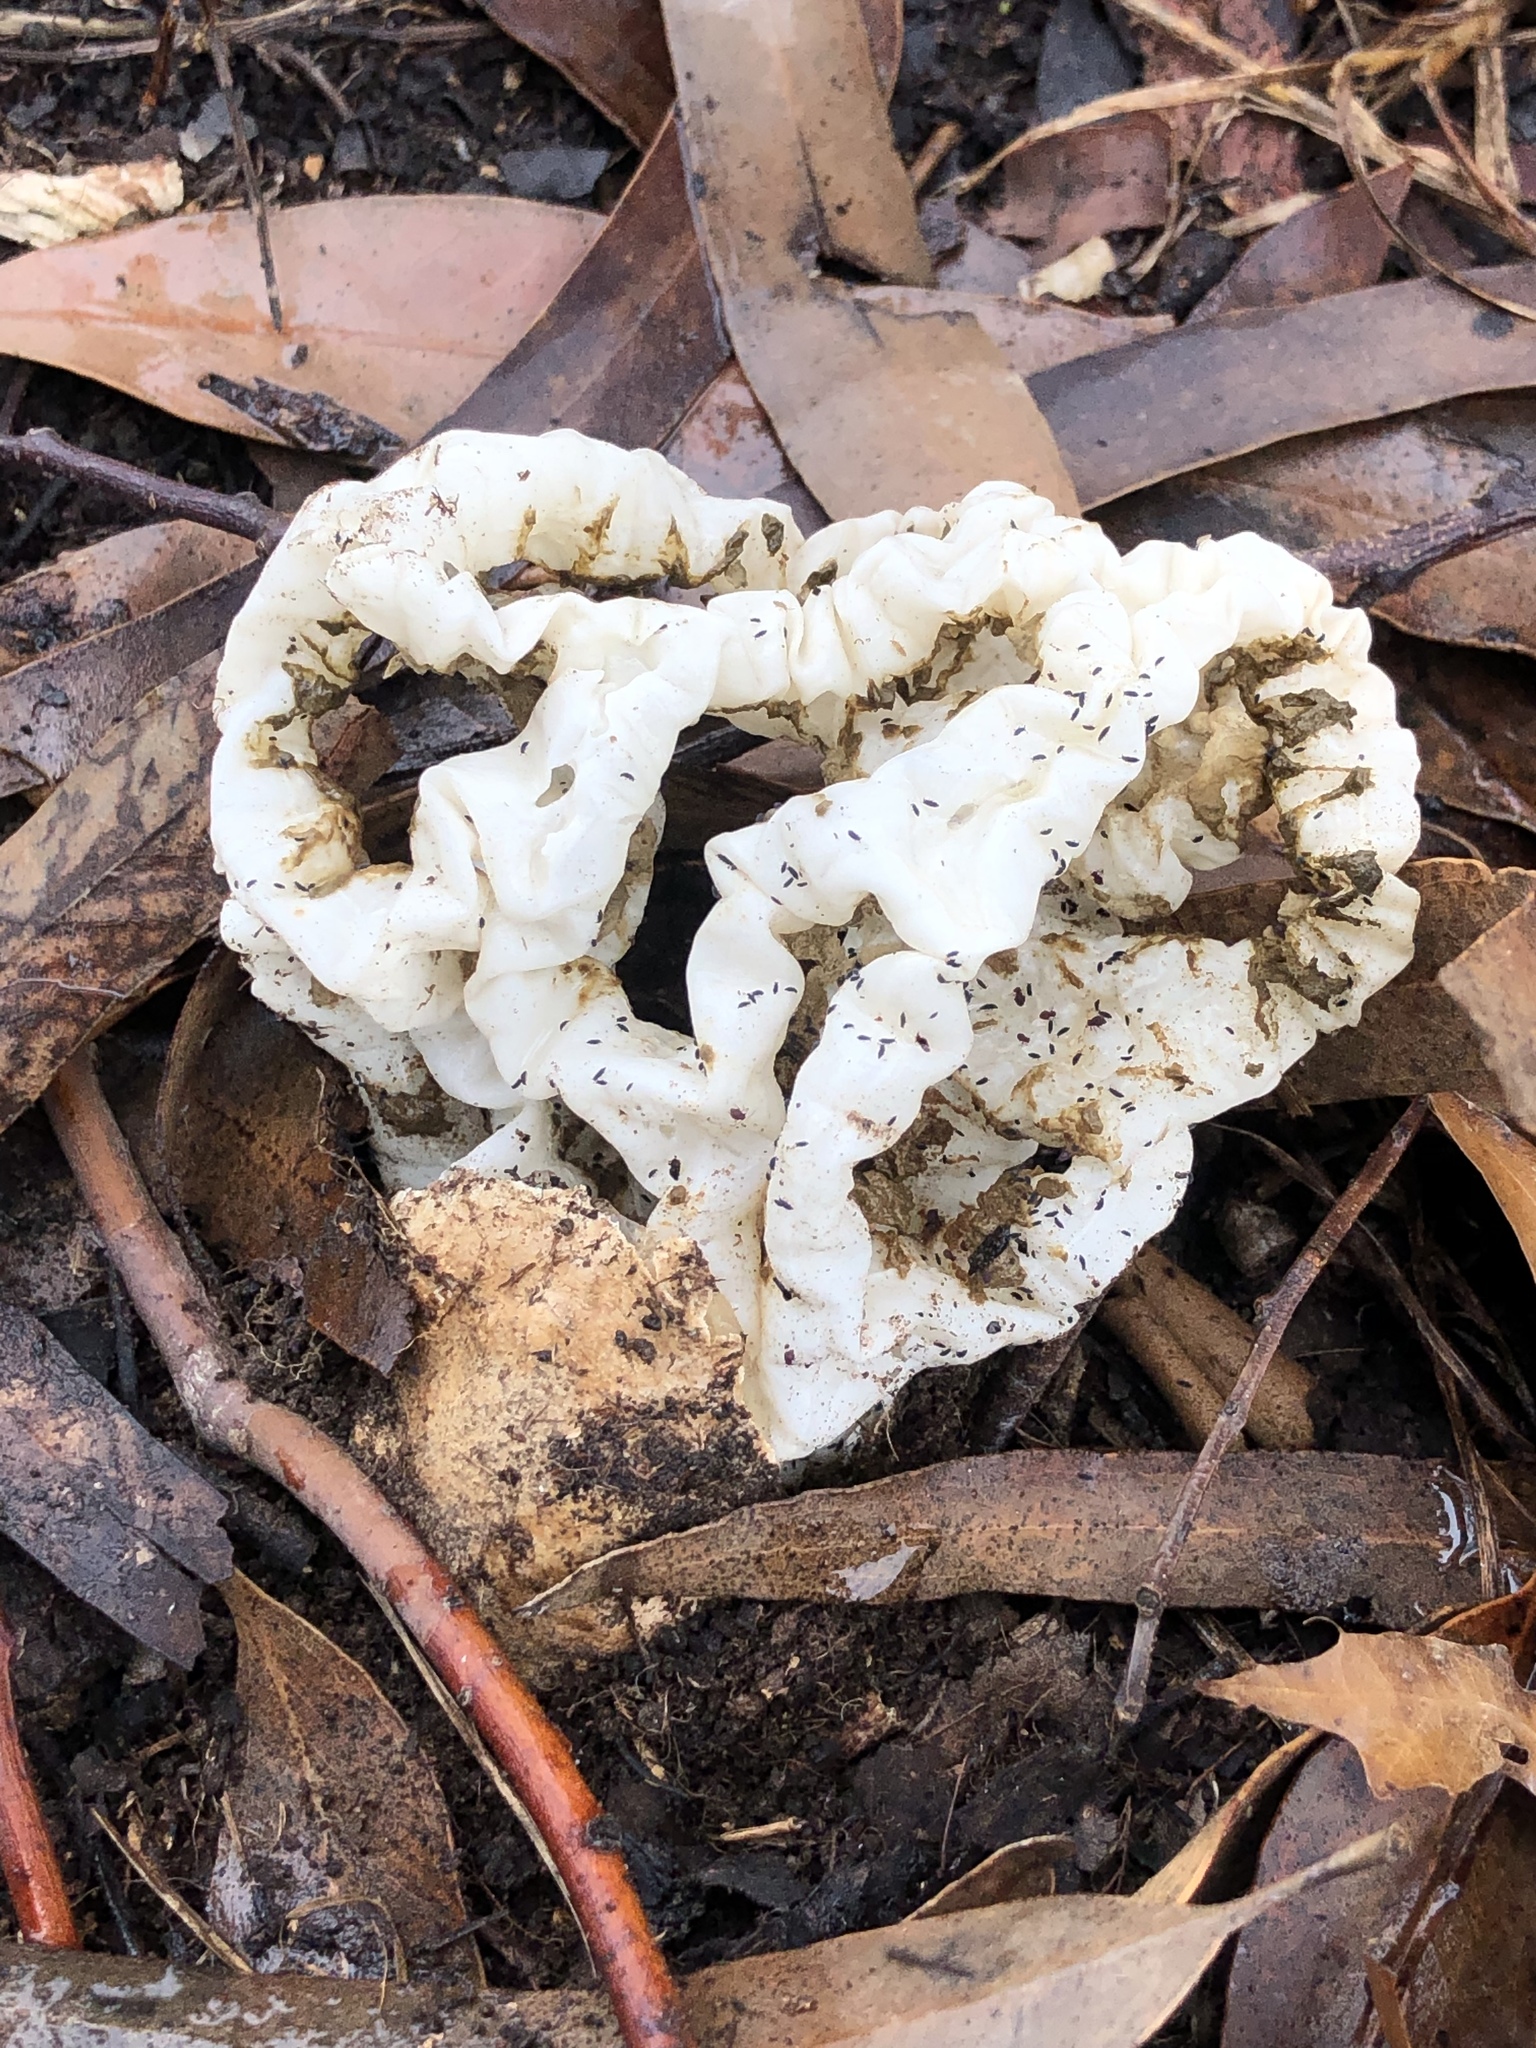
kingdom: Fungi
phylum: Basidiomycota
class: Agaricomycetes
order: Phallales
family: Phallaceae
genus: Ileodictyon
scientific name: Ileodictyon cibarium
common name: Basket fungus
